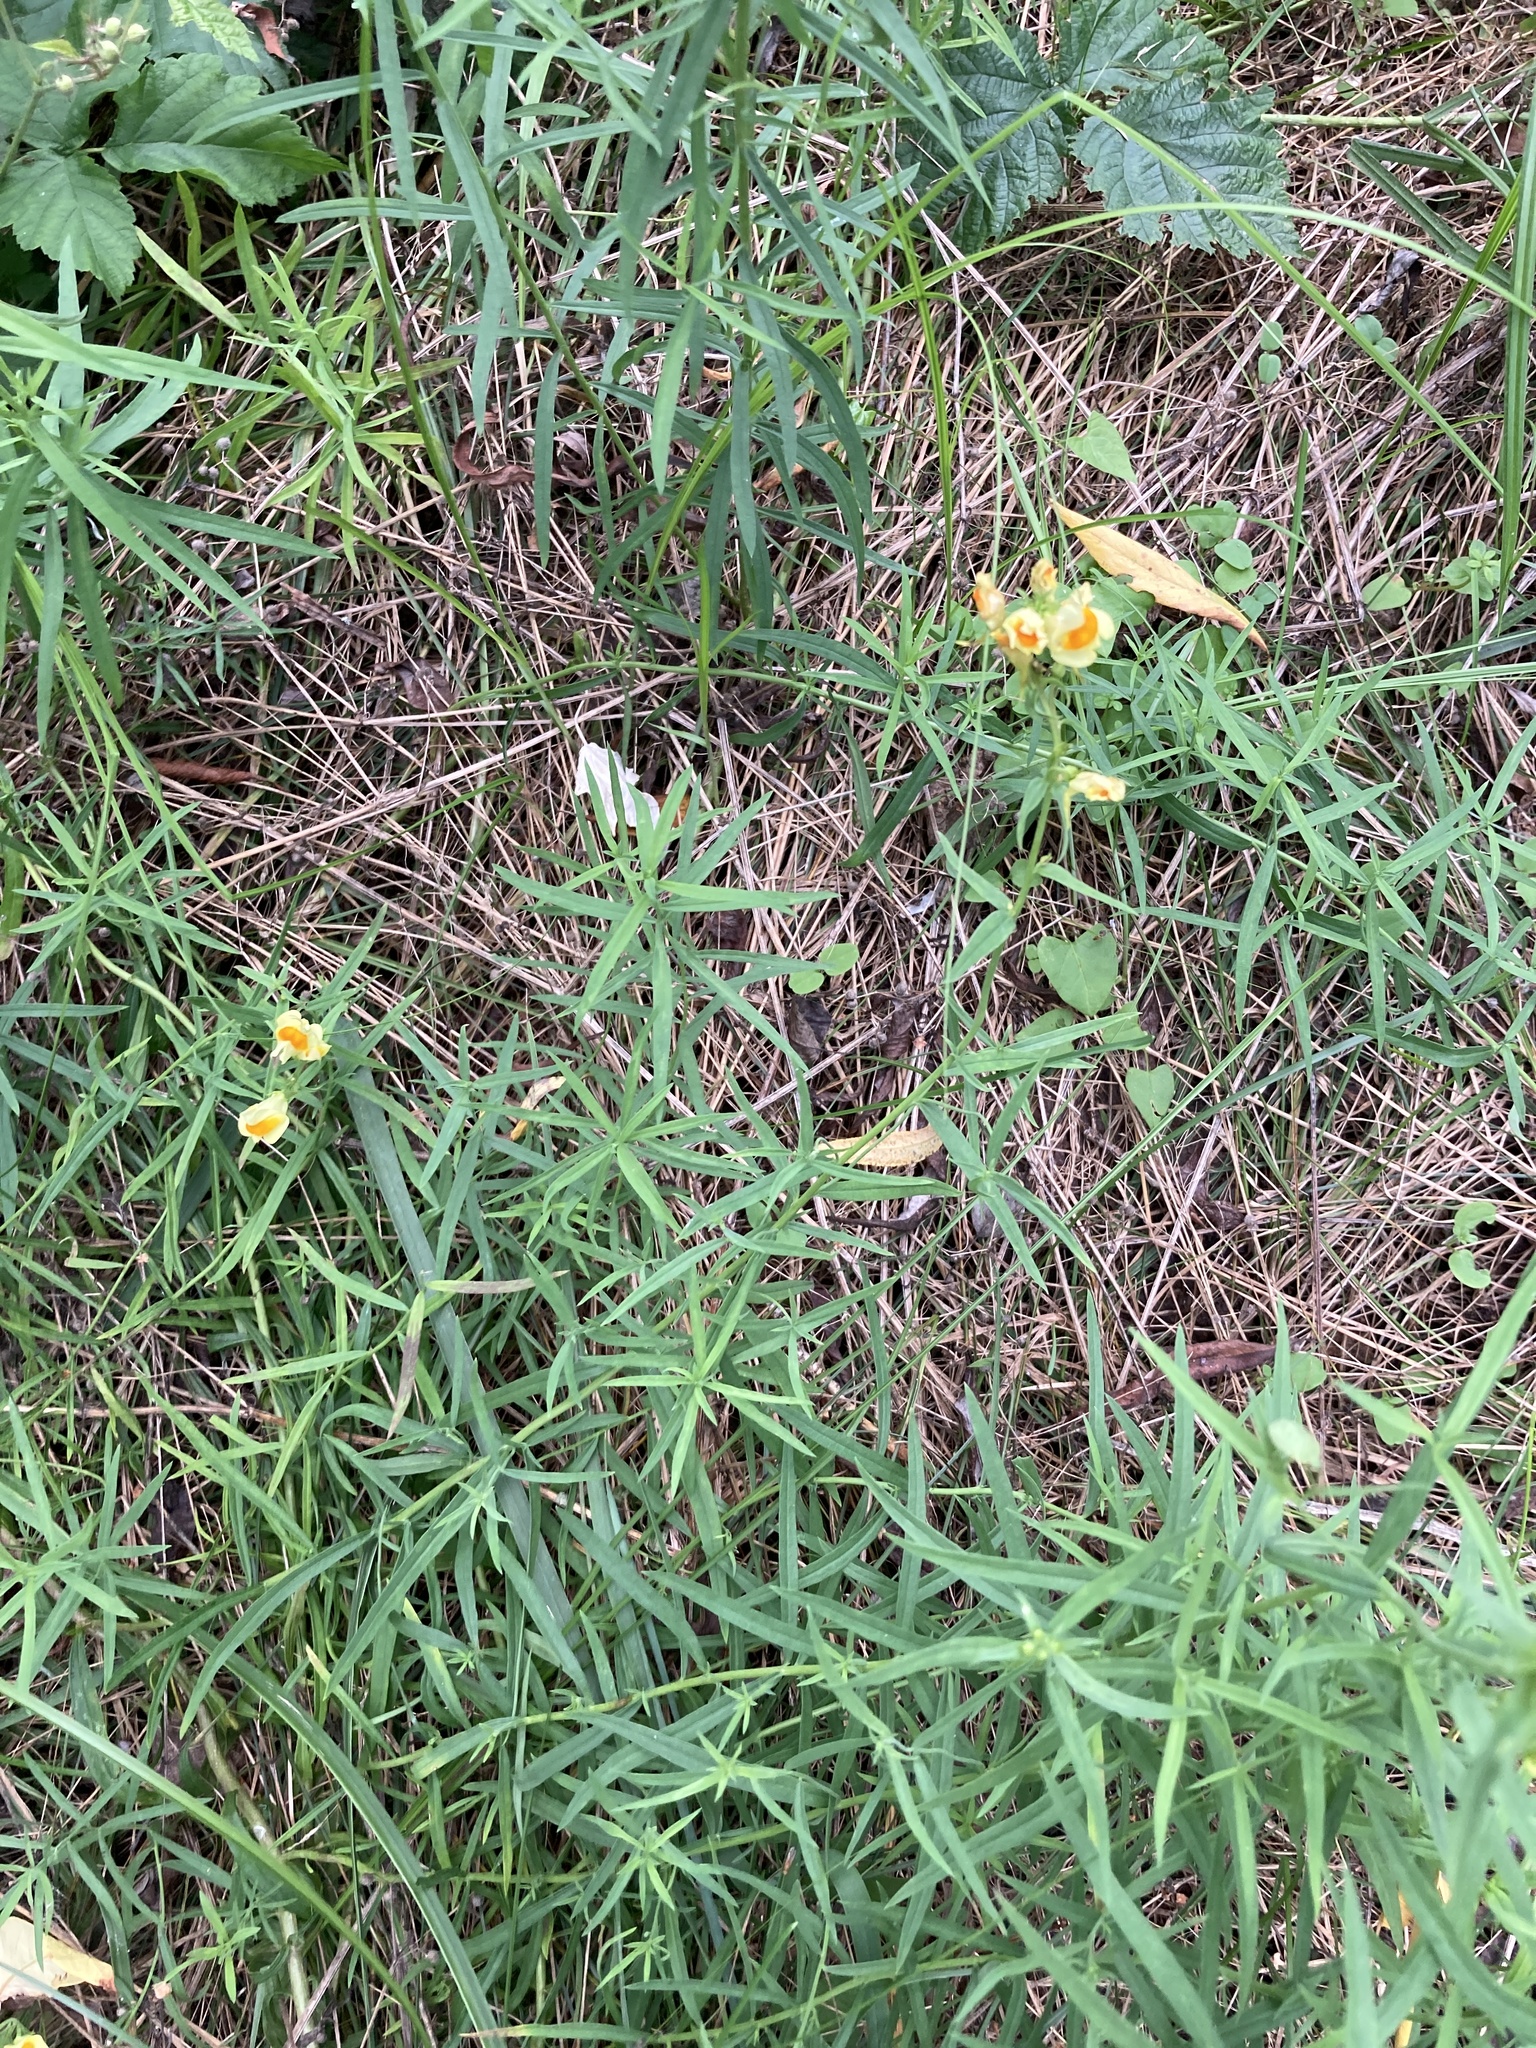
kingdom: Plantae
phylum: Tracheophyta
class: Magnoliopsida
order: Lamiales
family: Plantaginaceae
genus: Linaria
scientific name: Linaria vulgaris
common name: Butter and eggs
